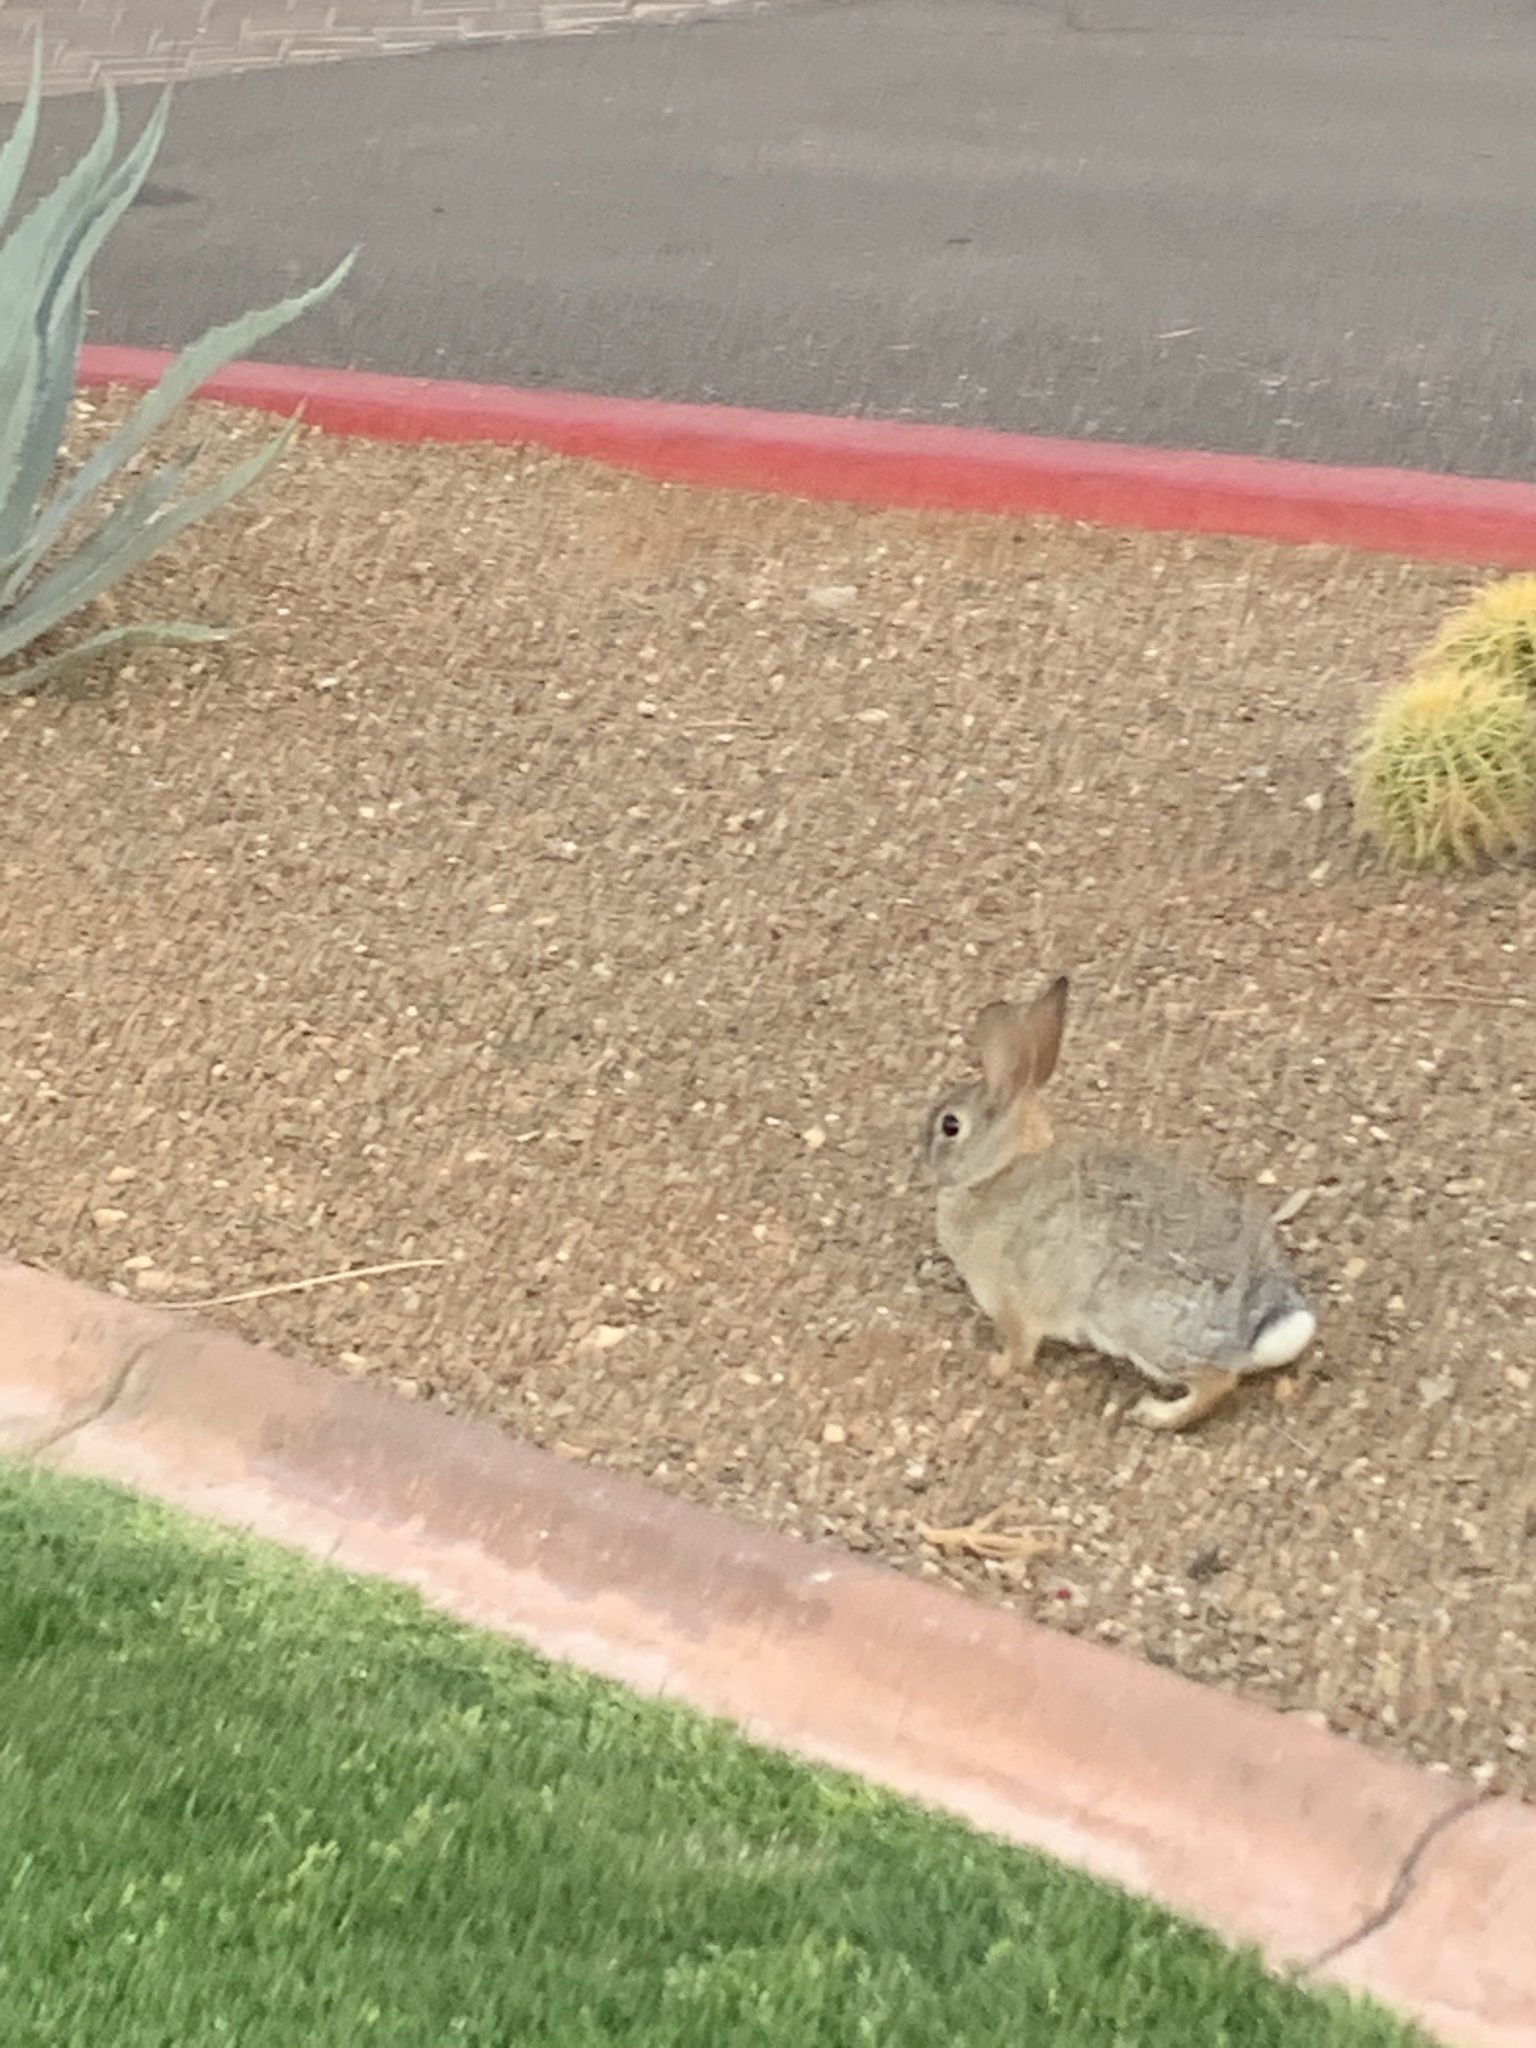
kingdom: Animalia
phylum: Chordata
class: Mammalia
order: Lagomorpha
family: Leporidae
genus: Sylvilagus
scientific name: Sylvilagus audubonii
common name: Desert cottontail
